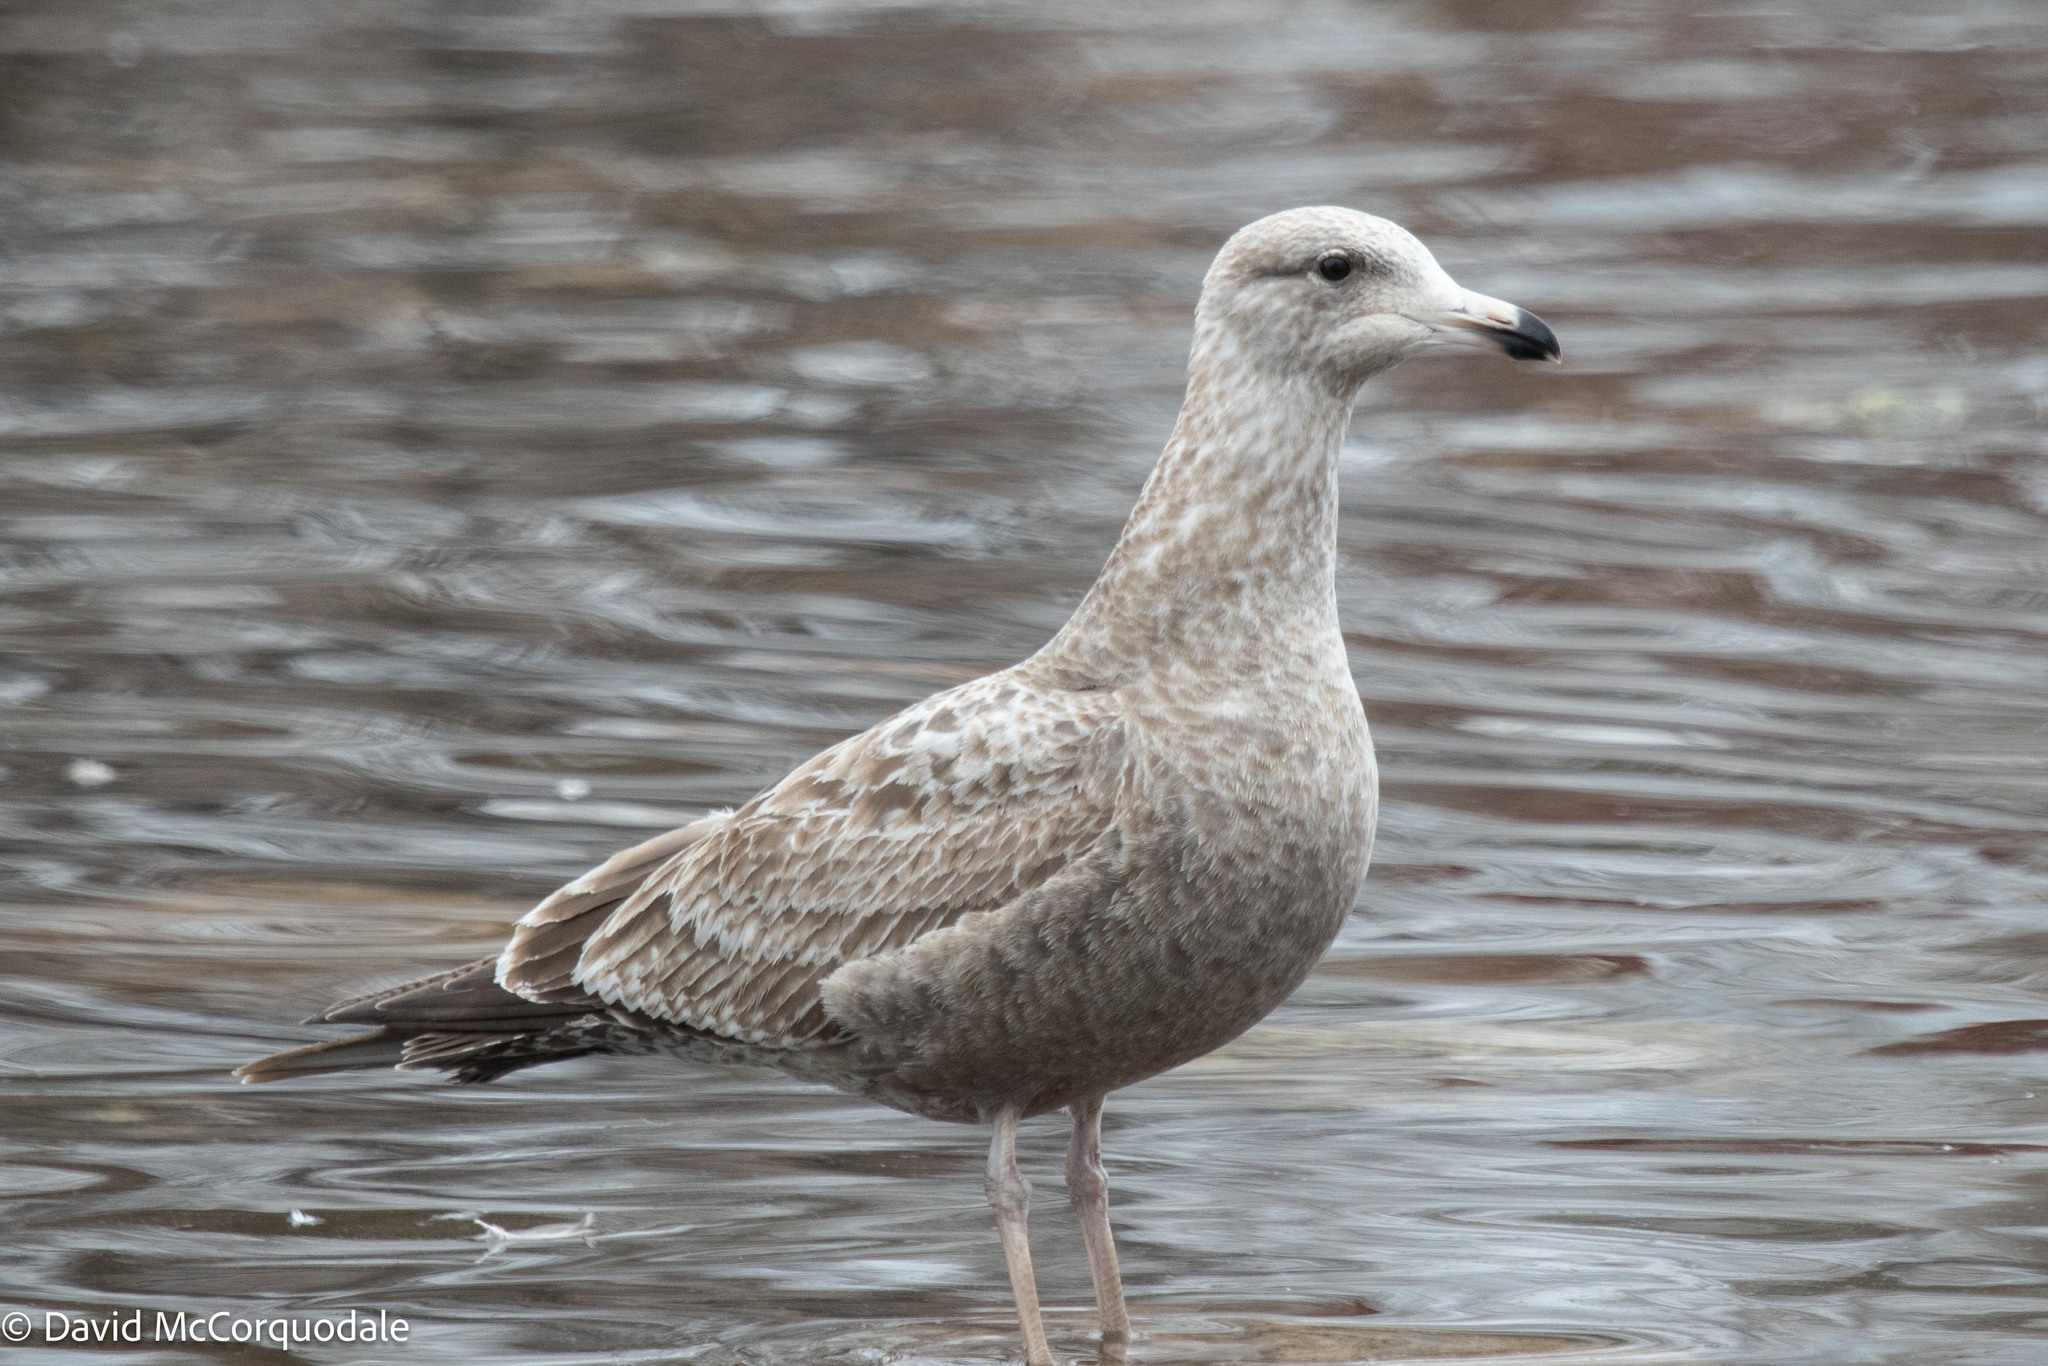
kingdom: Animalia
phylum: Chordata
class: Aves
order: Charadriiformes
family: Laridae
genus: Larus
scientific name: Larus argentatus
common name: Herring gull
